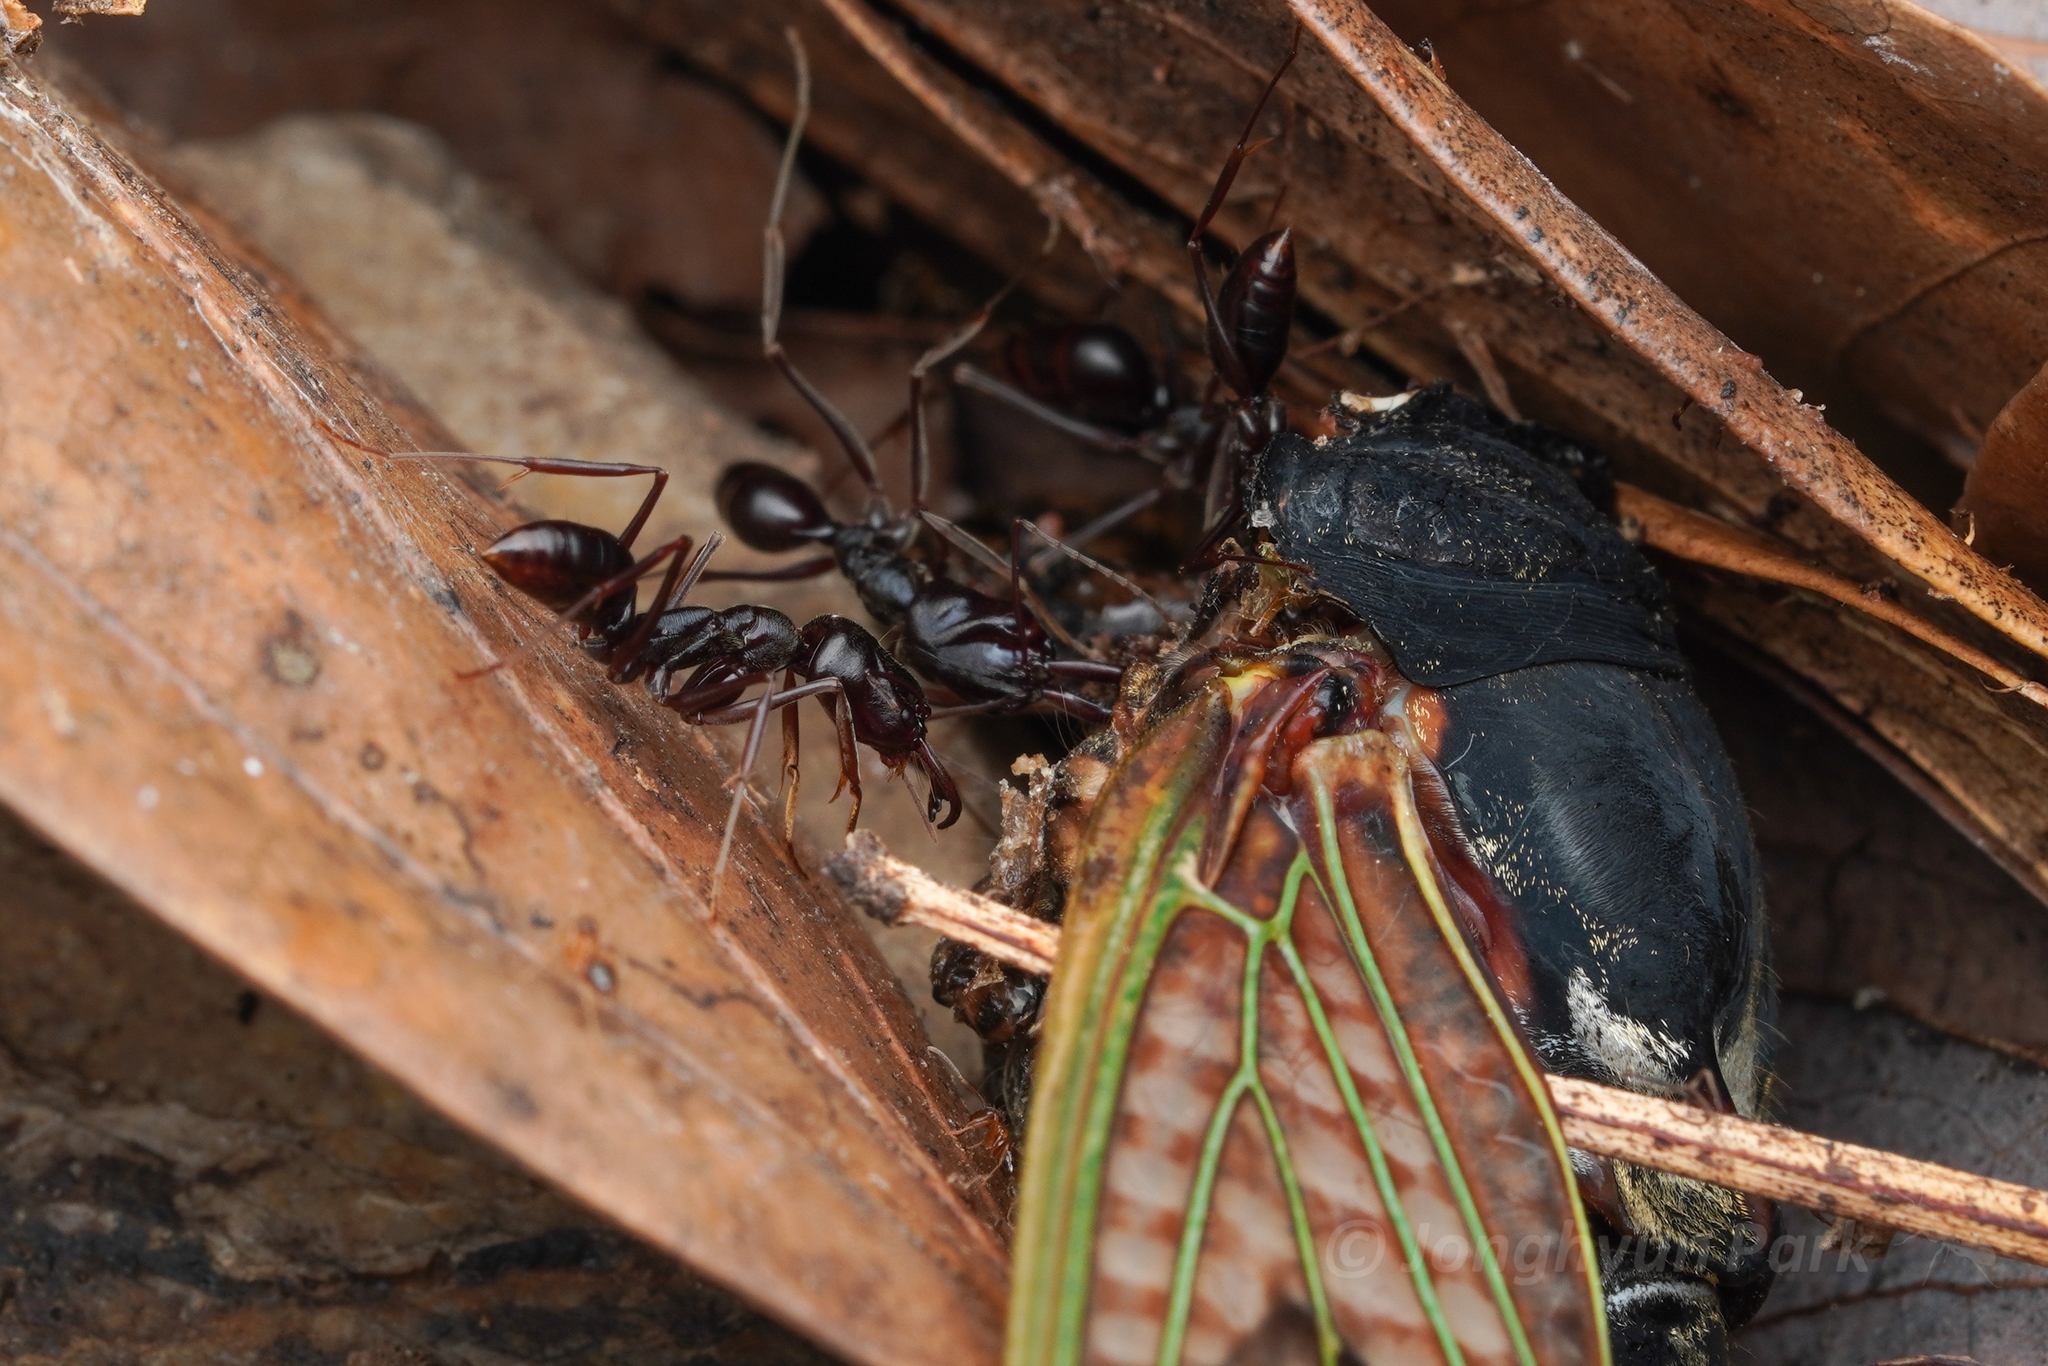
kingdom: Animalia
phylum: Arthropoda
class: Insecta
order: Hymenoptera
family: Formicidae
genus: Odontomachus
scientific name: Odontomachus monticola
